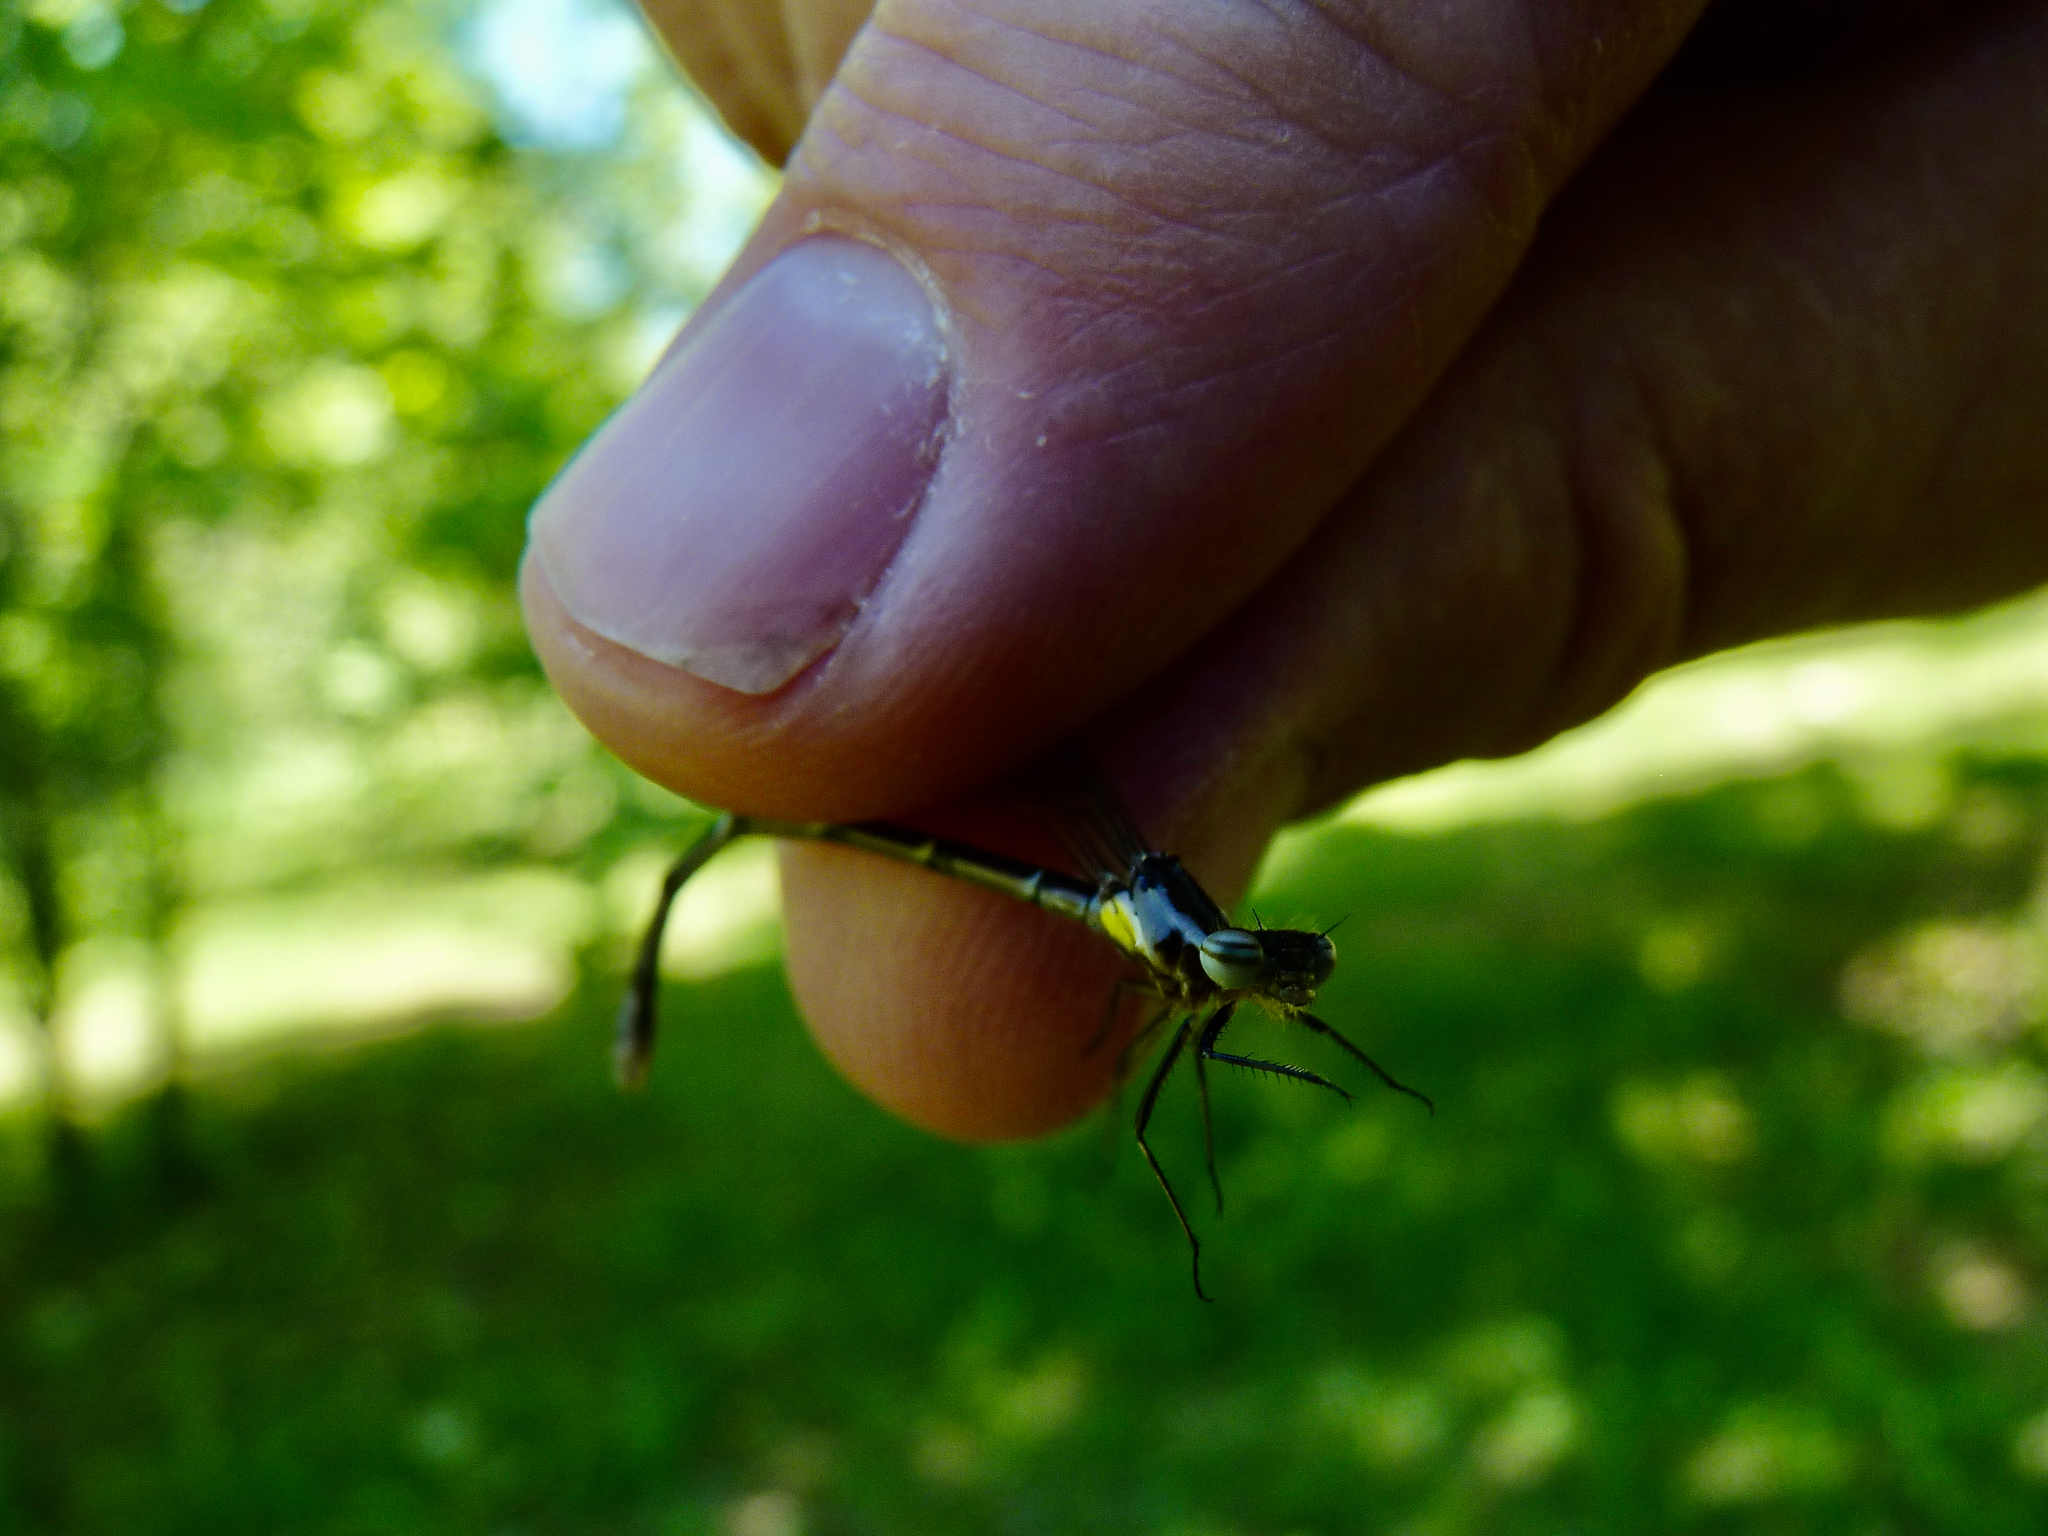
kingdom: Animalia
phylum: Arthropoda
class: Insecta
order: Odonata
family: Coenagrionidae
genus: Chromagrion
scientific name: Chromagrion conditum
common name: Aurora damsel
